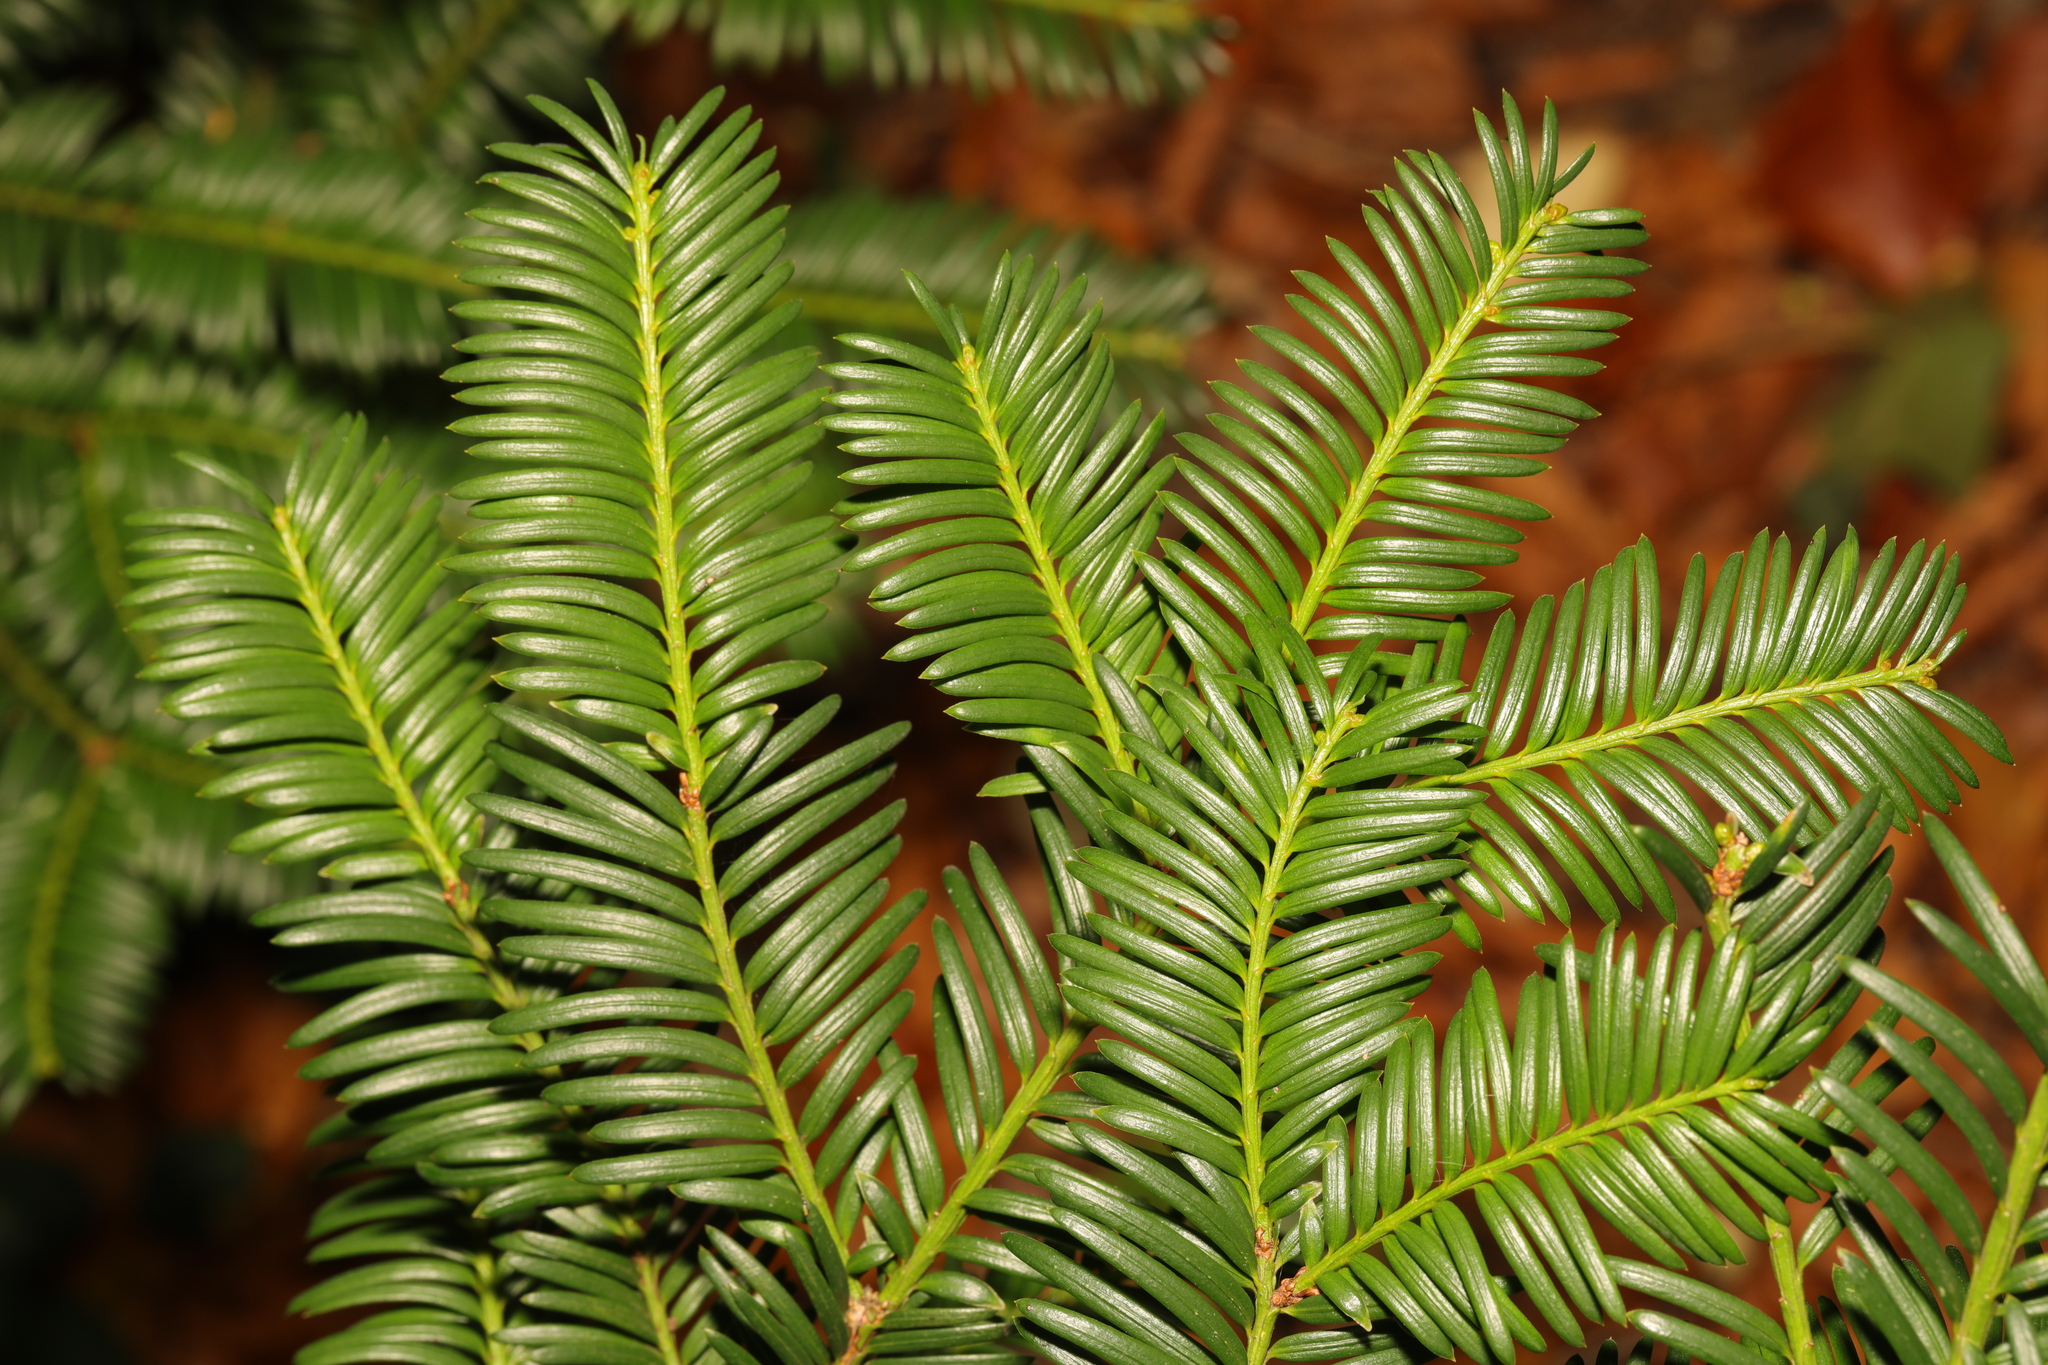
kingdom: Plantae
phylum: Tracheophyta
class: Pinopsida
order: Pinales
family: Taxaceae
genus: Taxus
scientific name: Taxus baccata
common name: Yew
